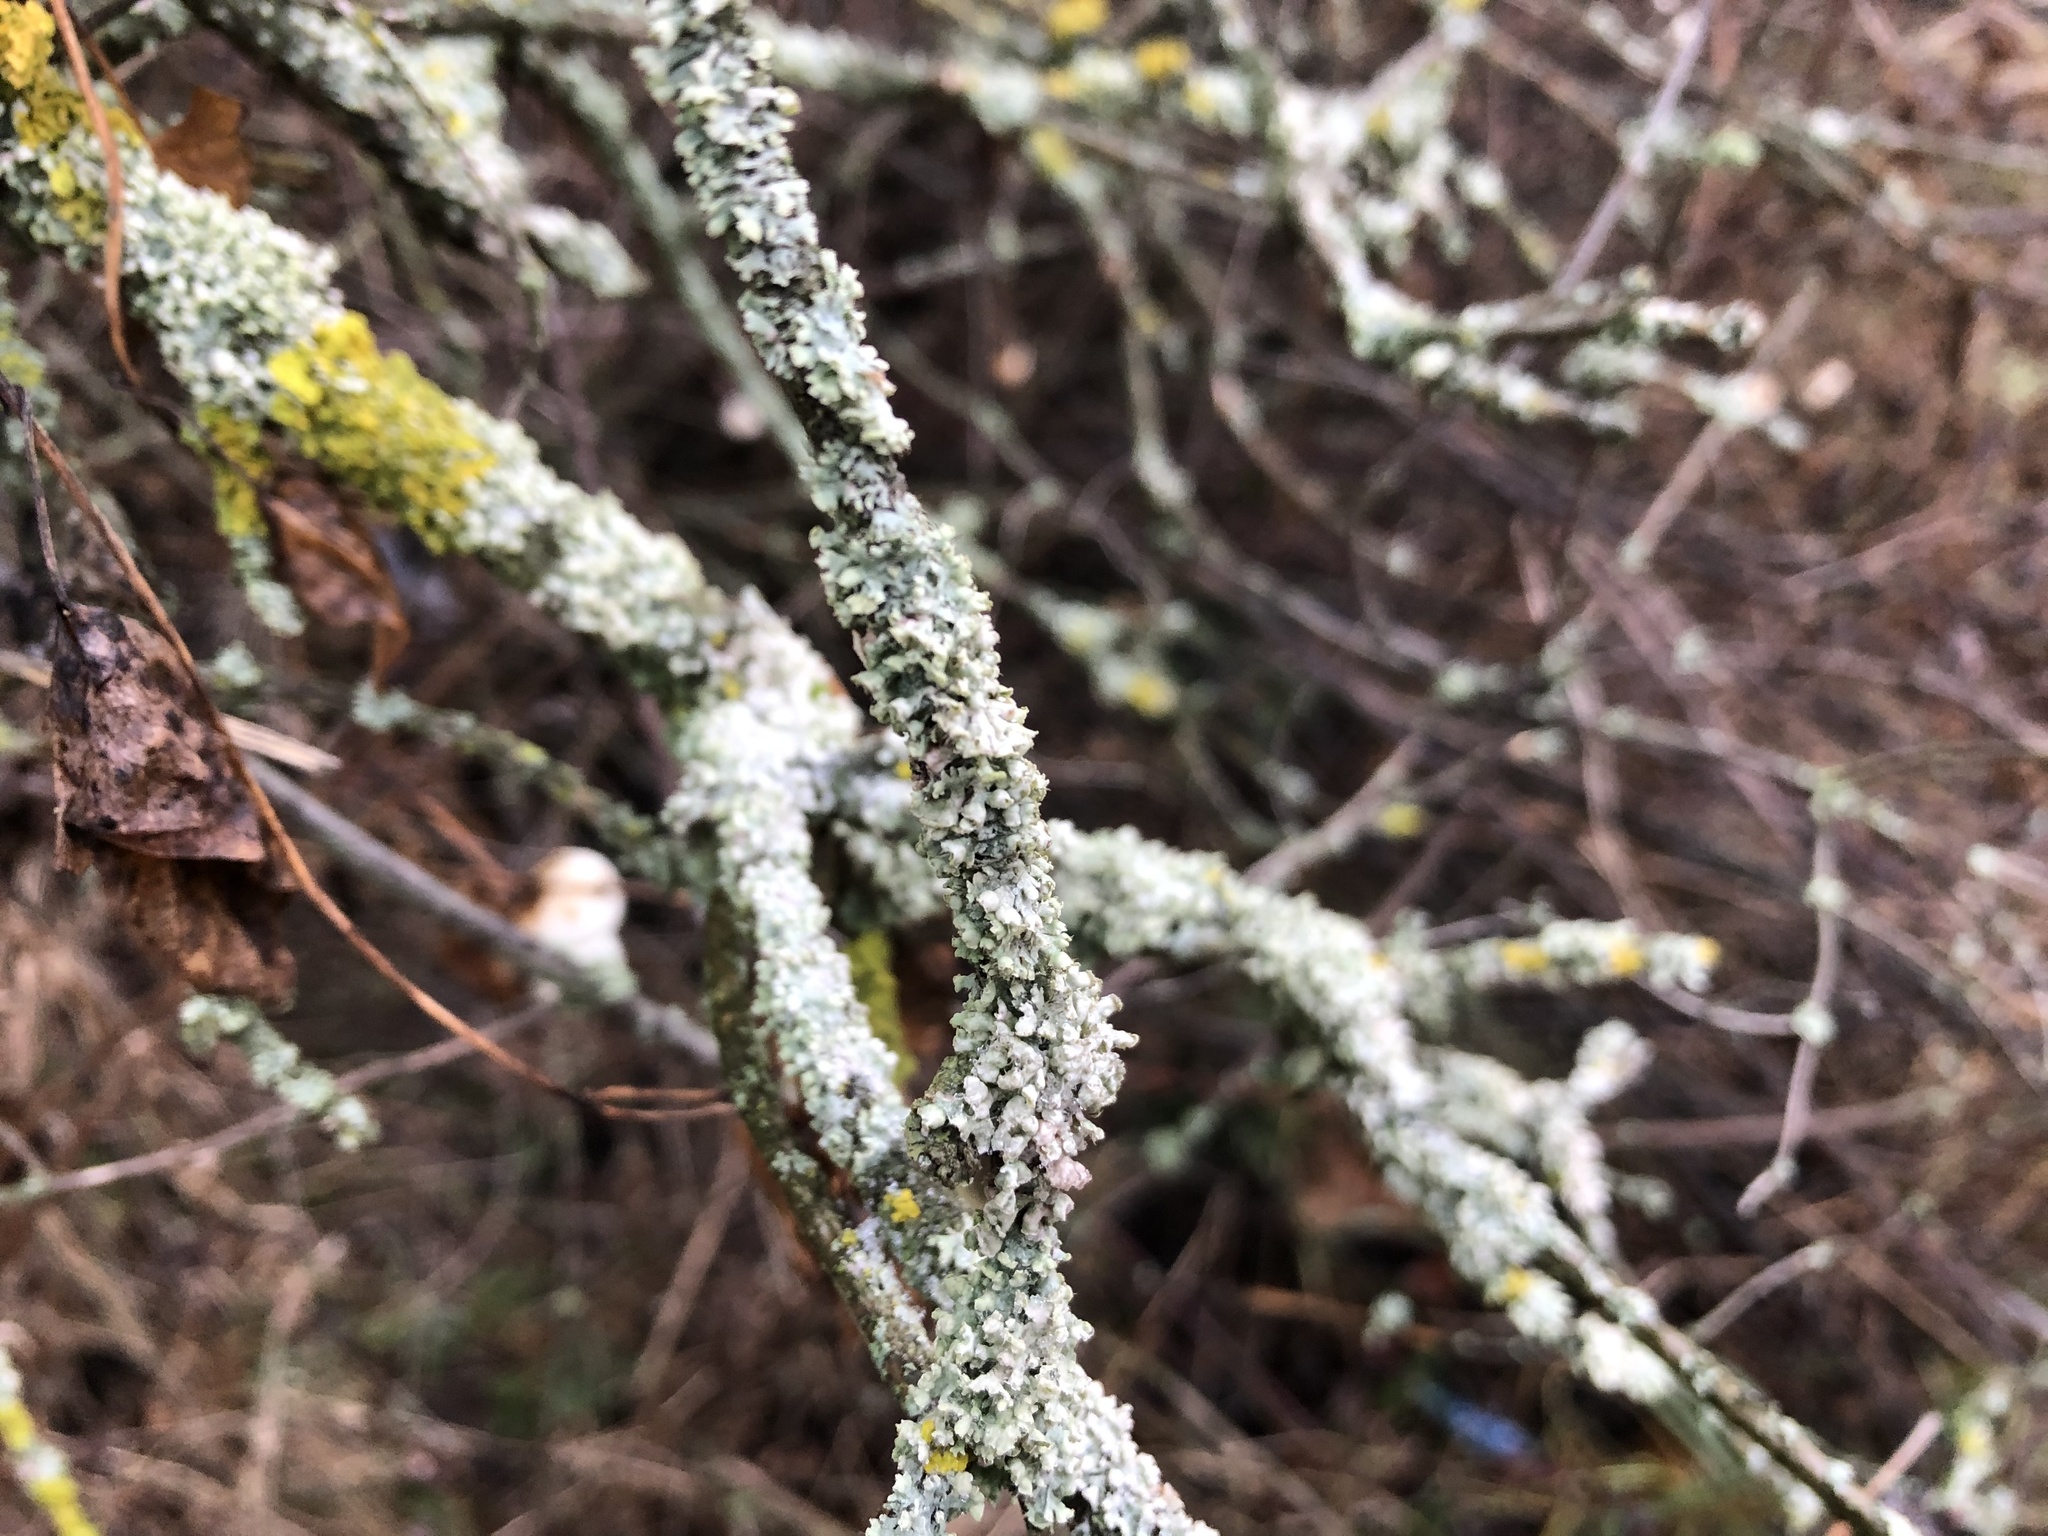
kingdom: Fungi
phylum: Ascomycota
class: Lecanoromycetes
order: Caliciales
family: Physciaceae
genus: Physcia
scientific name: Physcia adscendens
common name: Hooded rosette lichen
